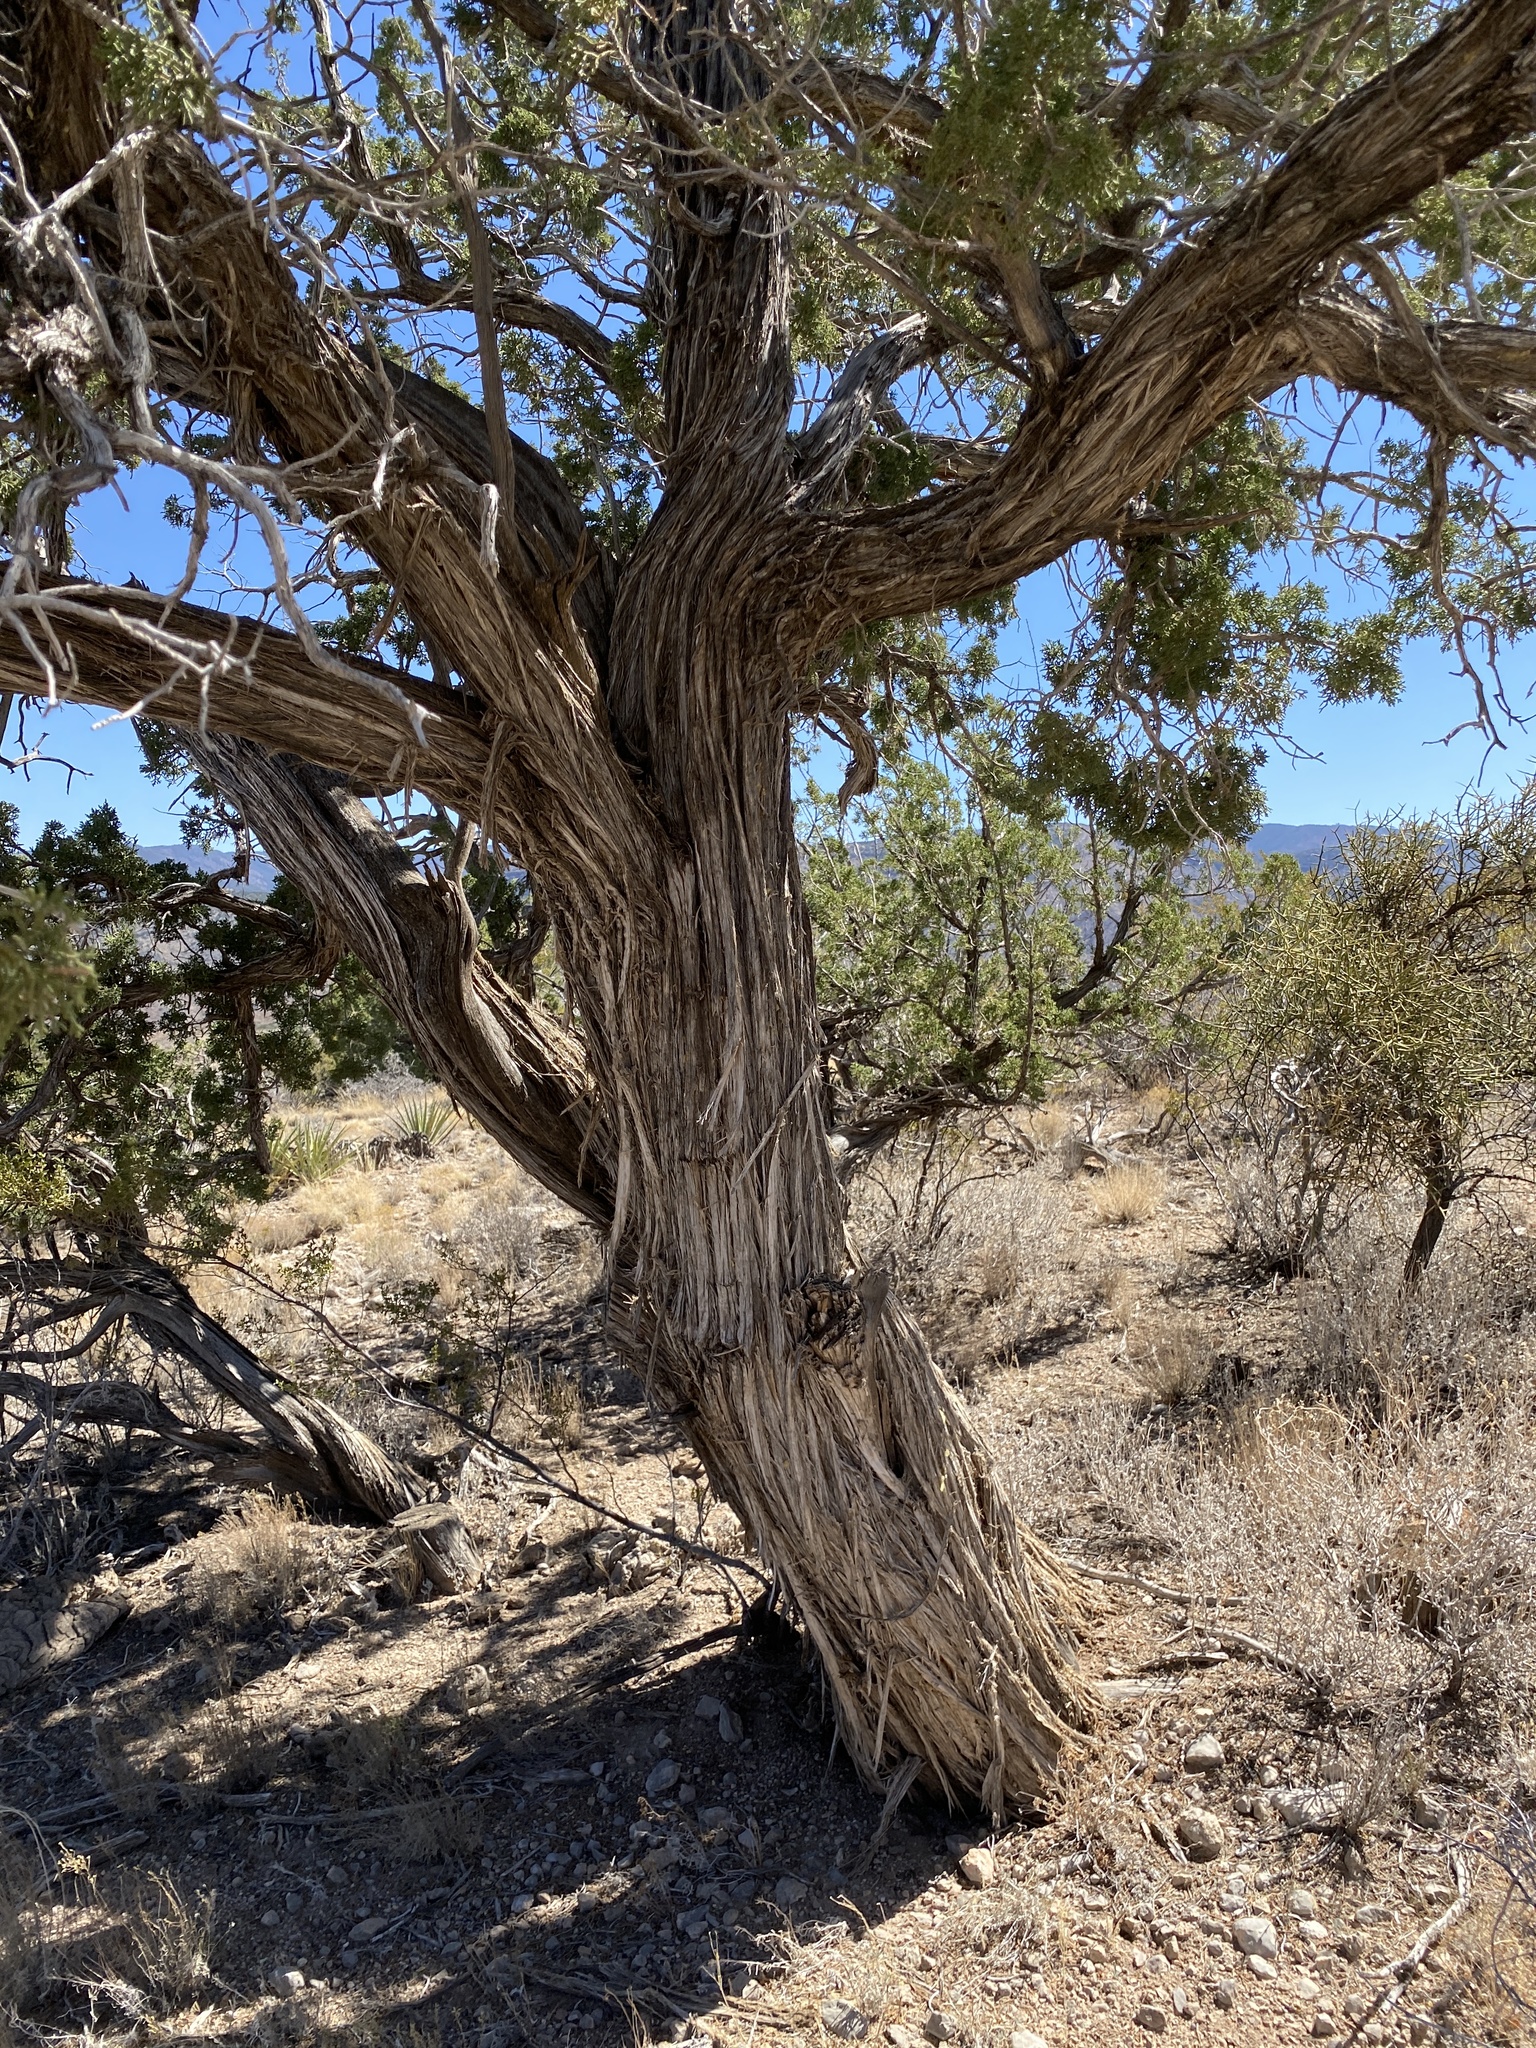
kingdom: Plantae
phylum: Tracheophyta
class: Pinopsida
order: Pinales
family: Cupressaceae
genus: Juniperus
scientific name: Juniperus monosperma
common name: One-seed juniper
